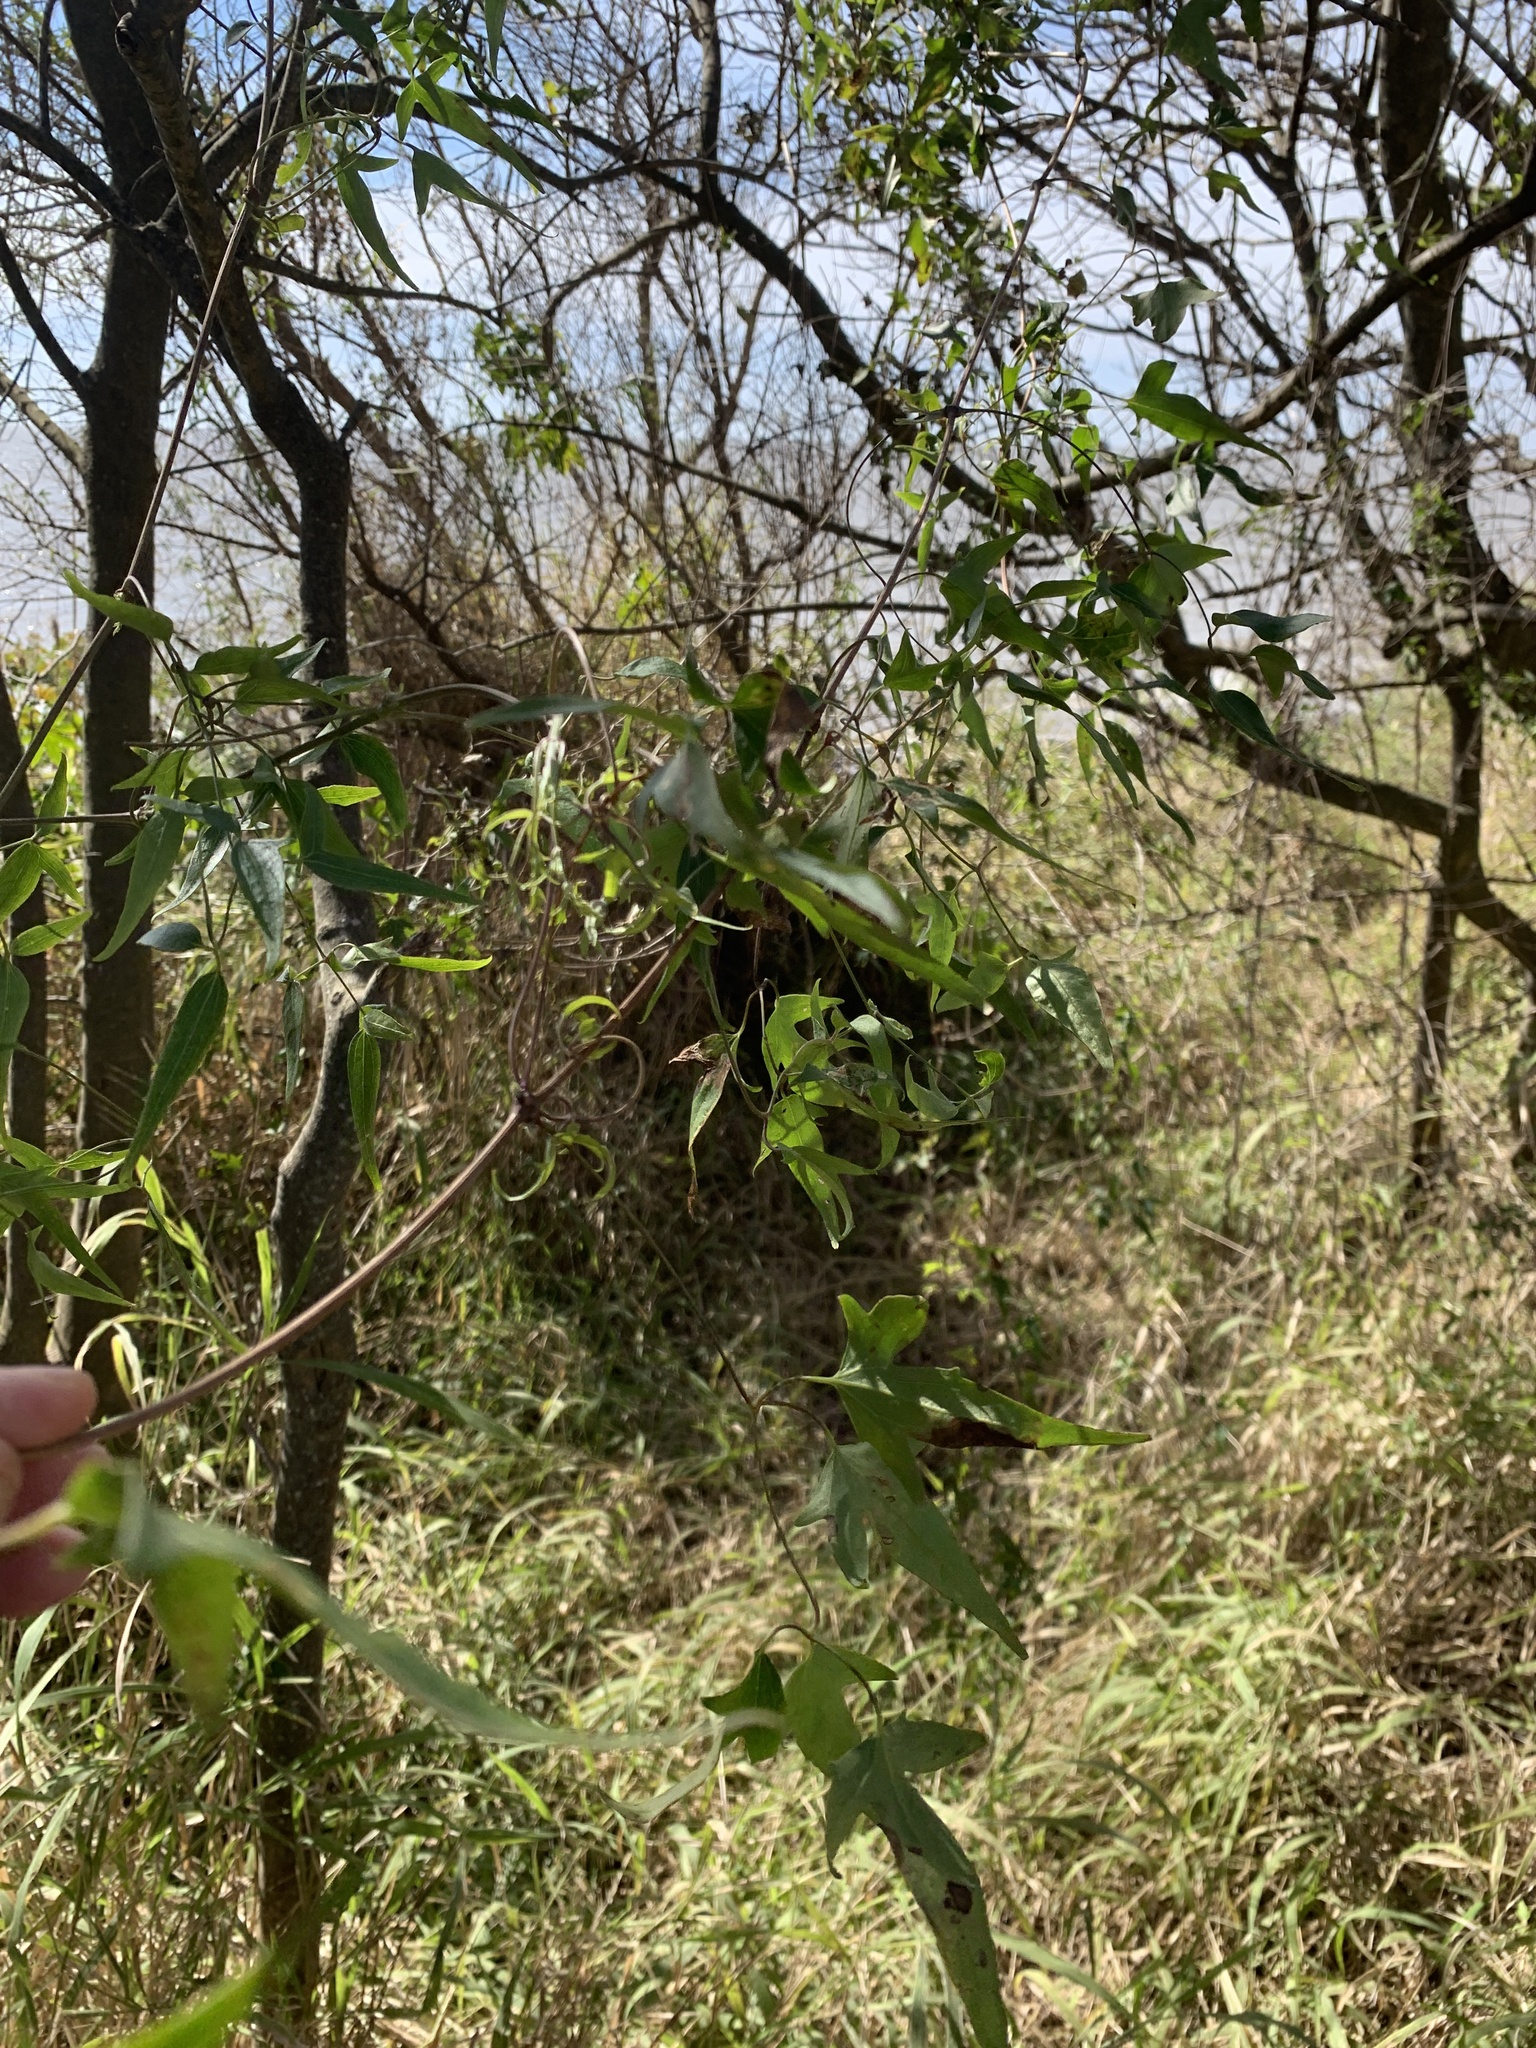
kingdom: Plantae
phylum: Tracheophyta
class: Magnoliopsida
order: Ranunculales
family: Ranunculaceae
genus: Clematis
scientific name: Clematis montevidensis
